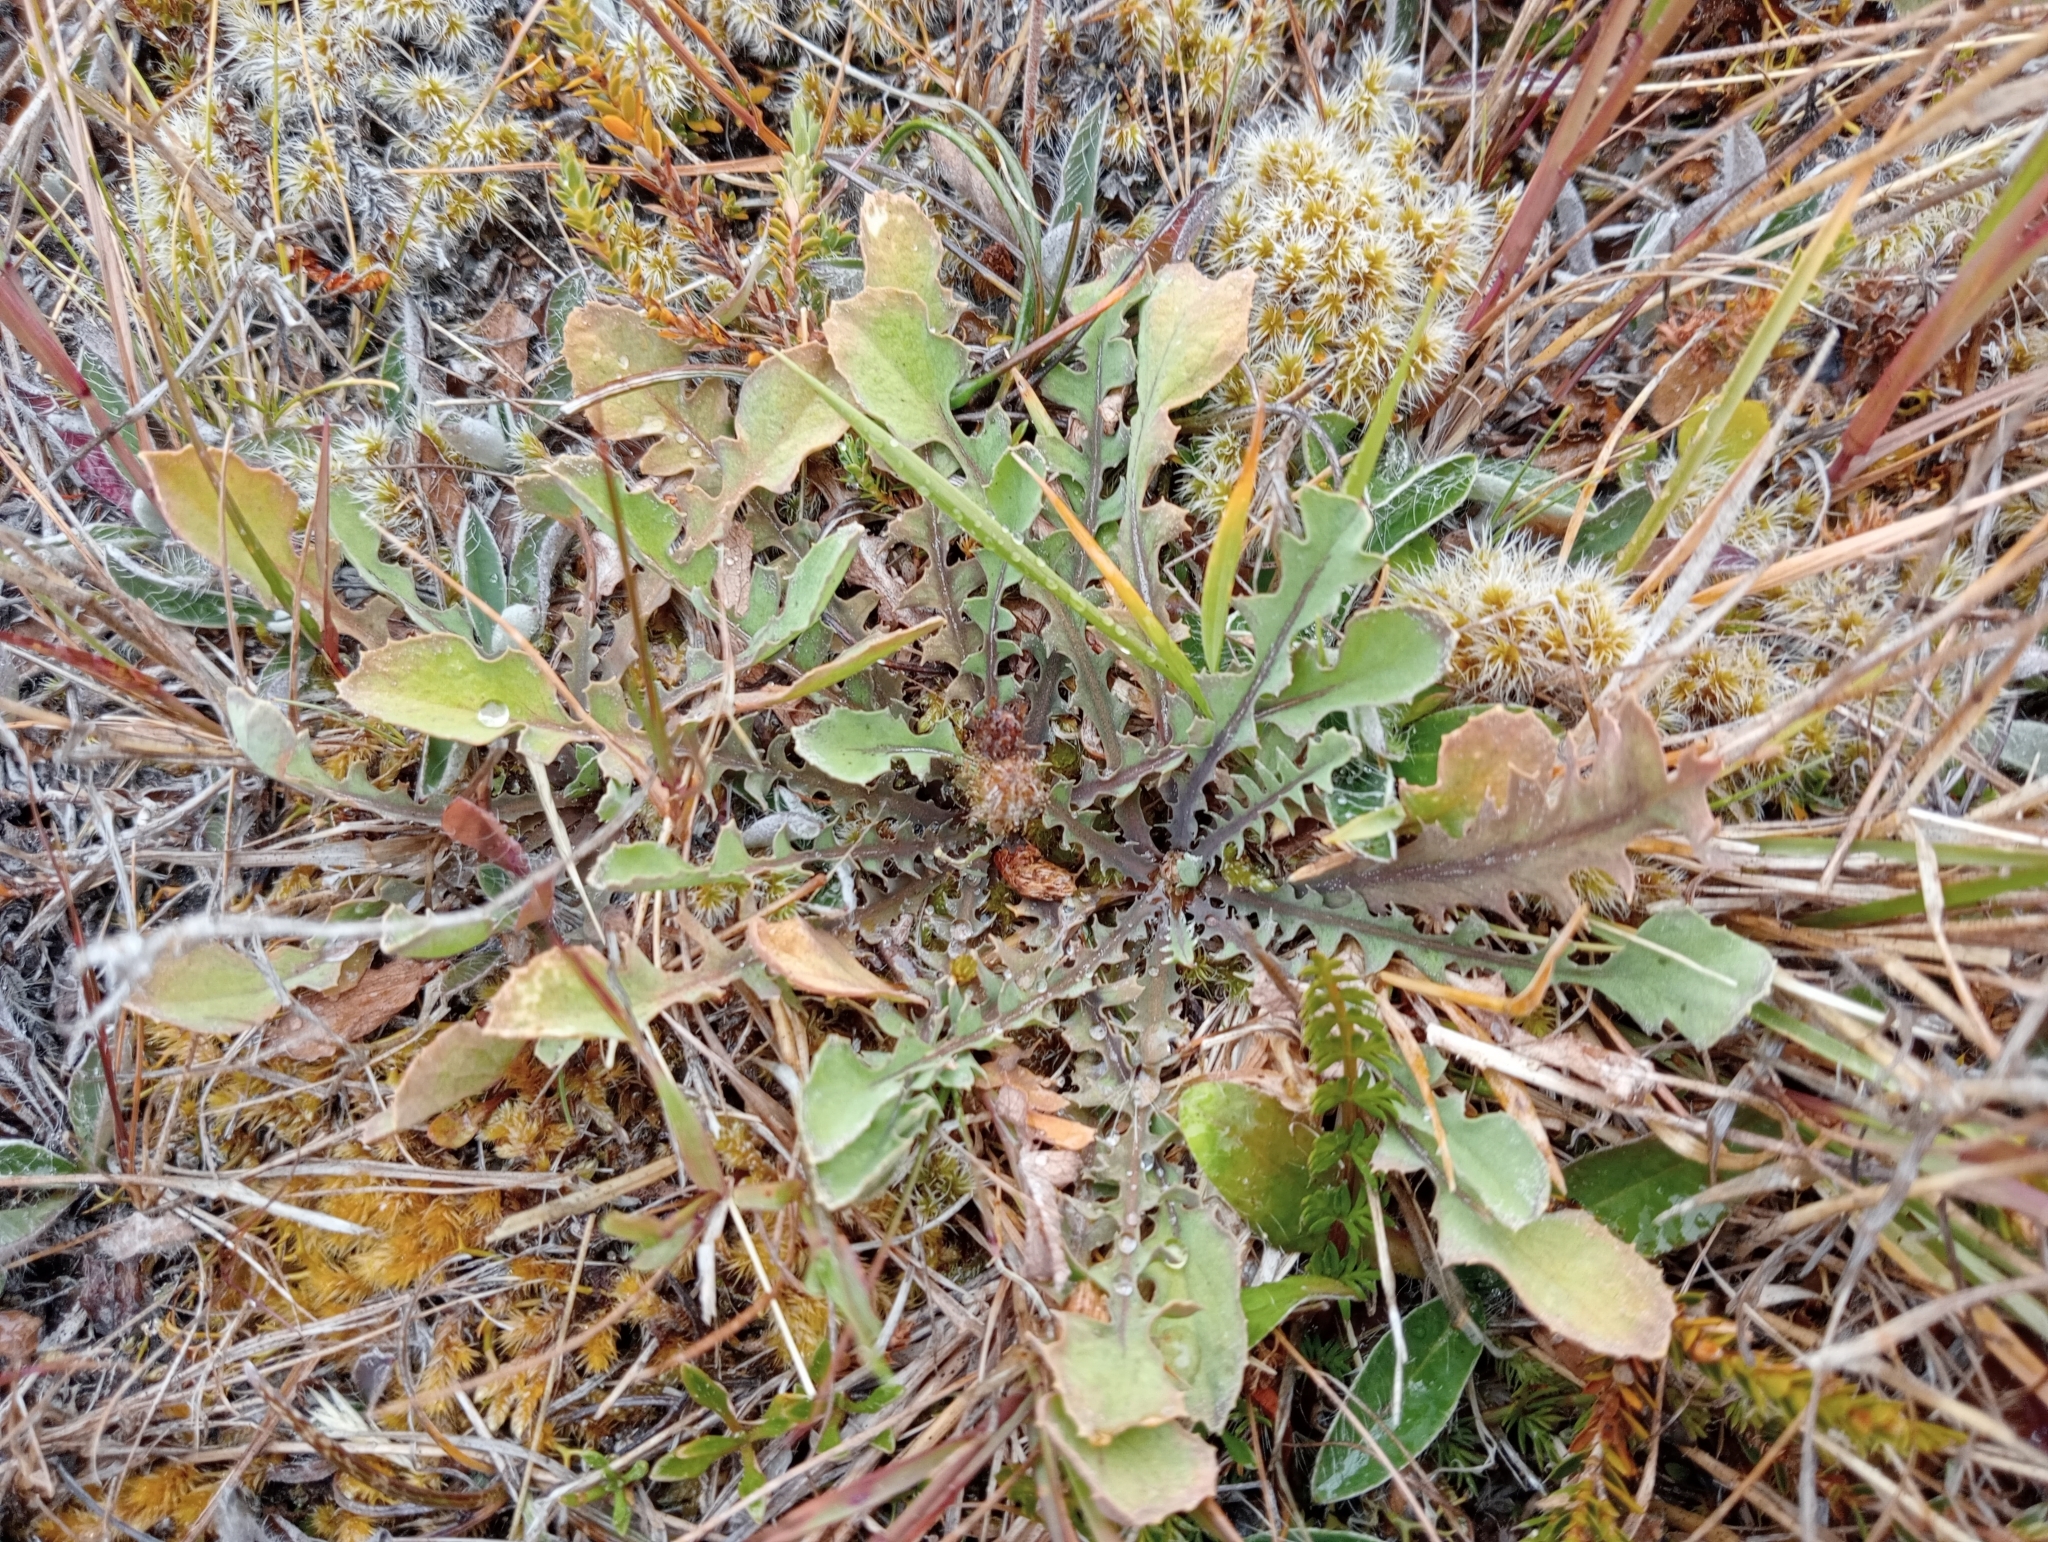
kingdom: Plantae
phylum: Tracheophyta
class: Magnoliopsida
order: Asterales
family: Asteraceae
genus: Sonchus
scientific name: Sonchus novae-zelandiae
